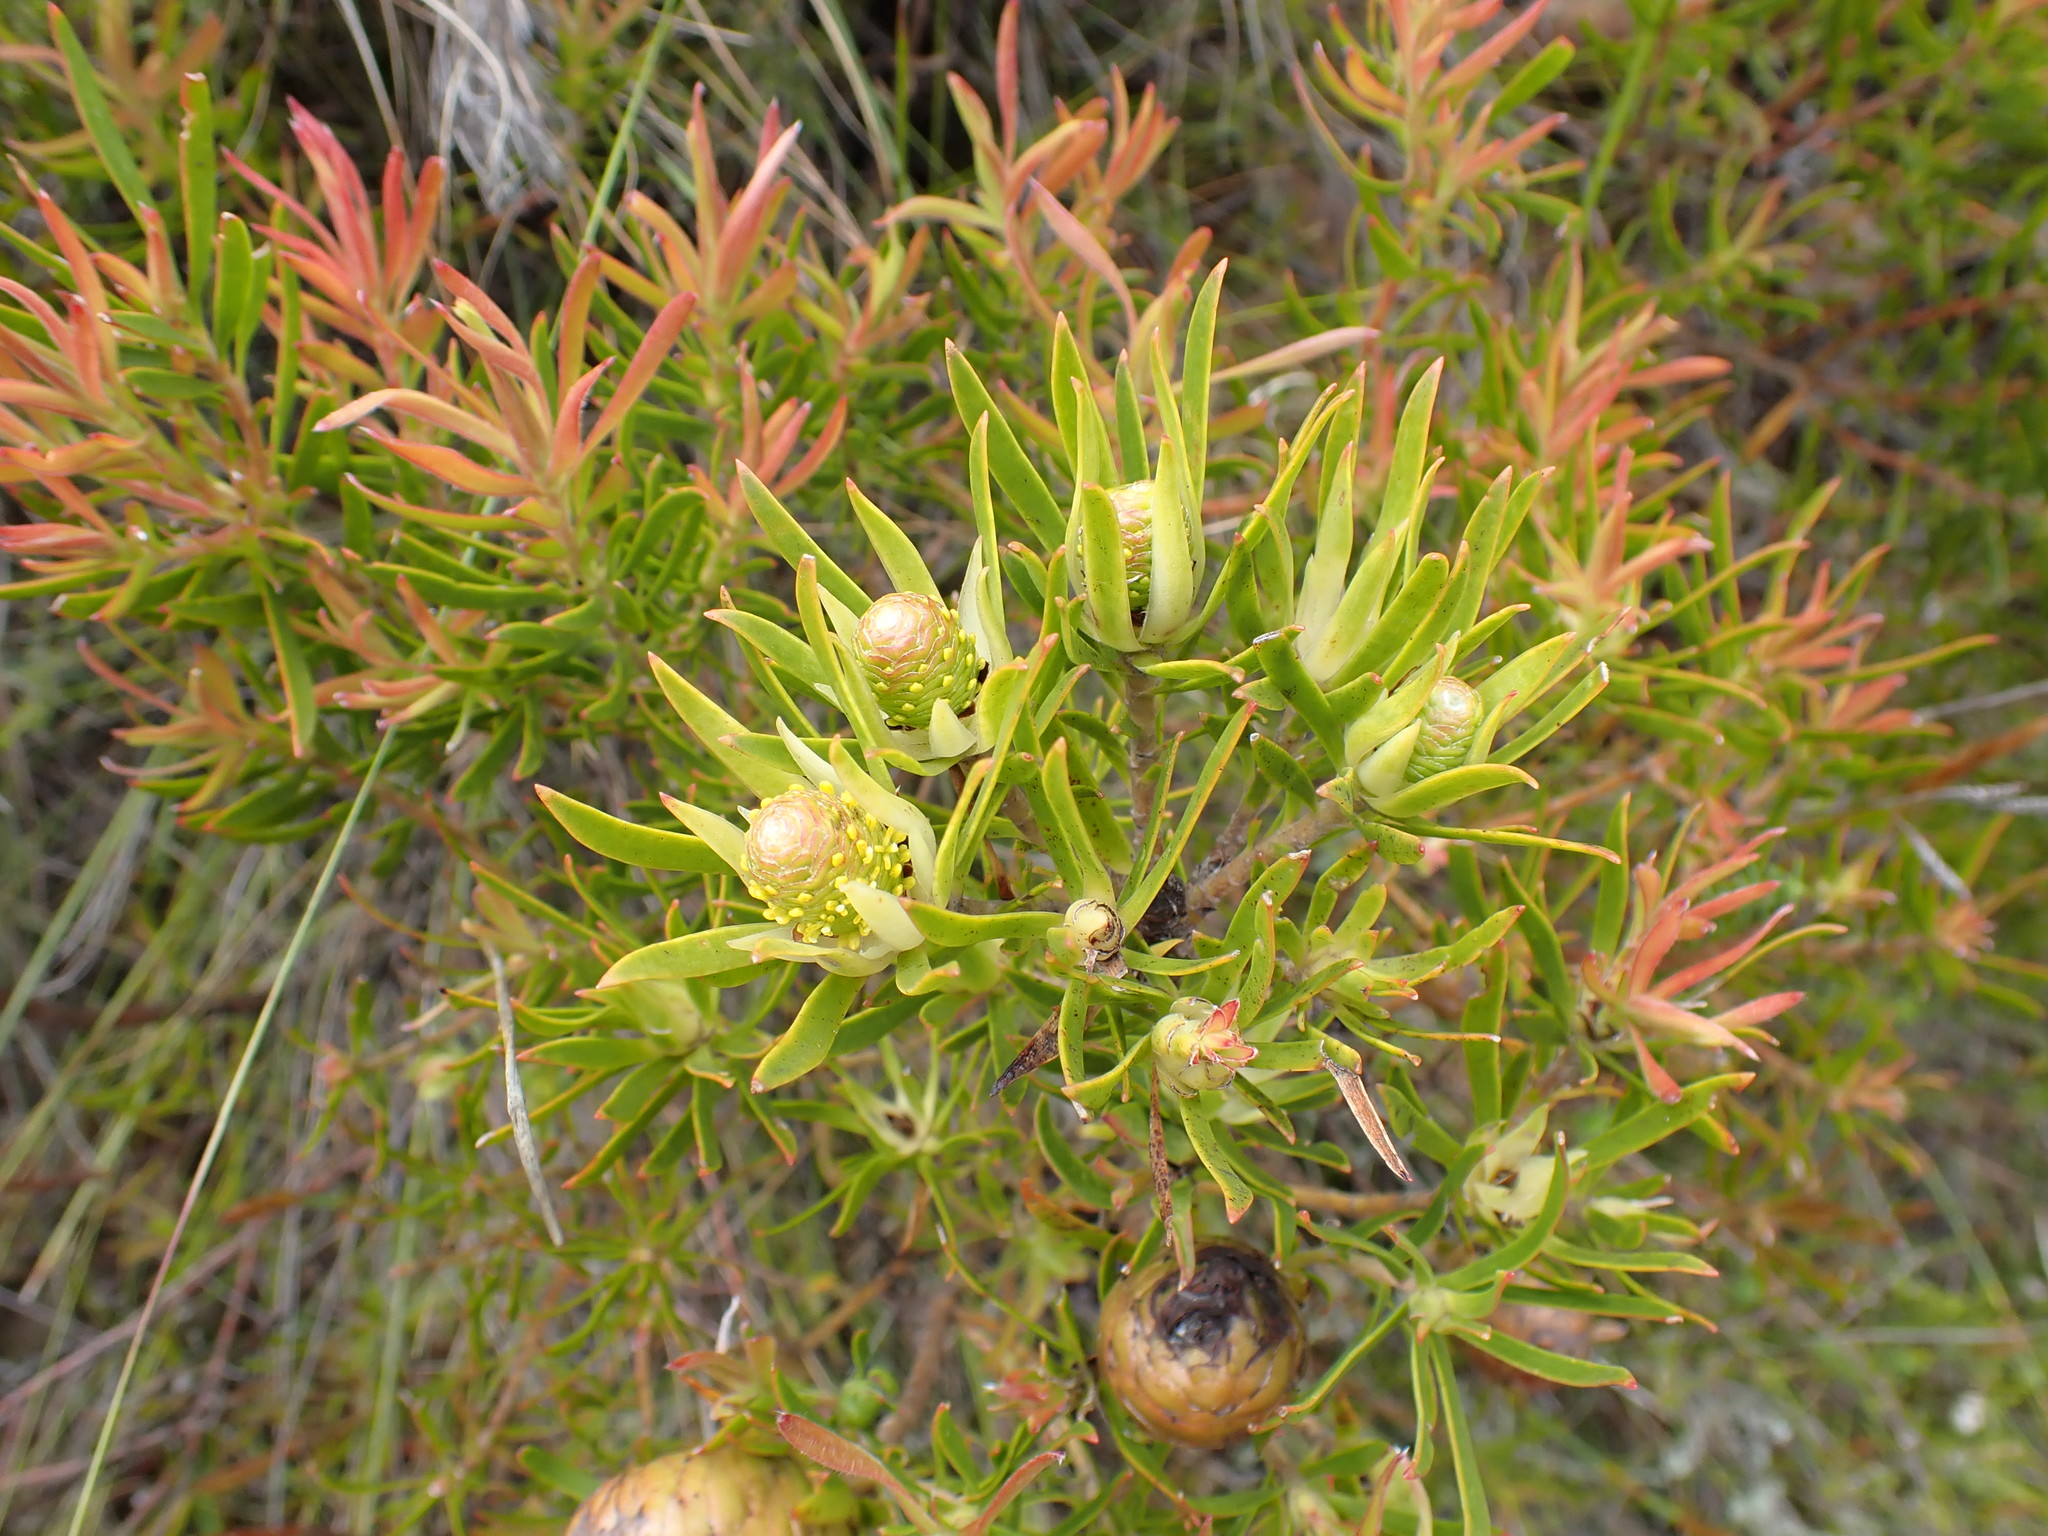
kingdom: Plantae
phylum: Tracheophyta
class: Magnoliopsida
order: Proteales
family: Proteaceae
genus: Leucadendron
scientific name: Leucadendron spissifolium
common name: Spear-leaf conebush
